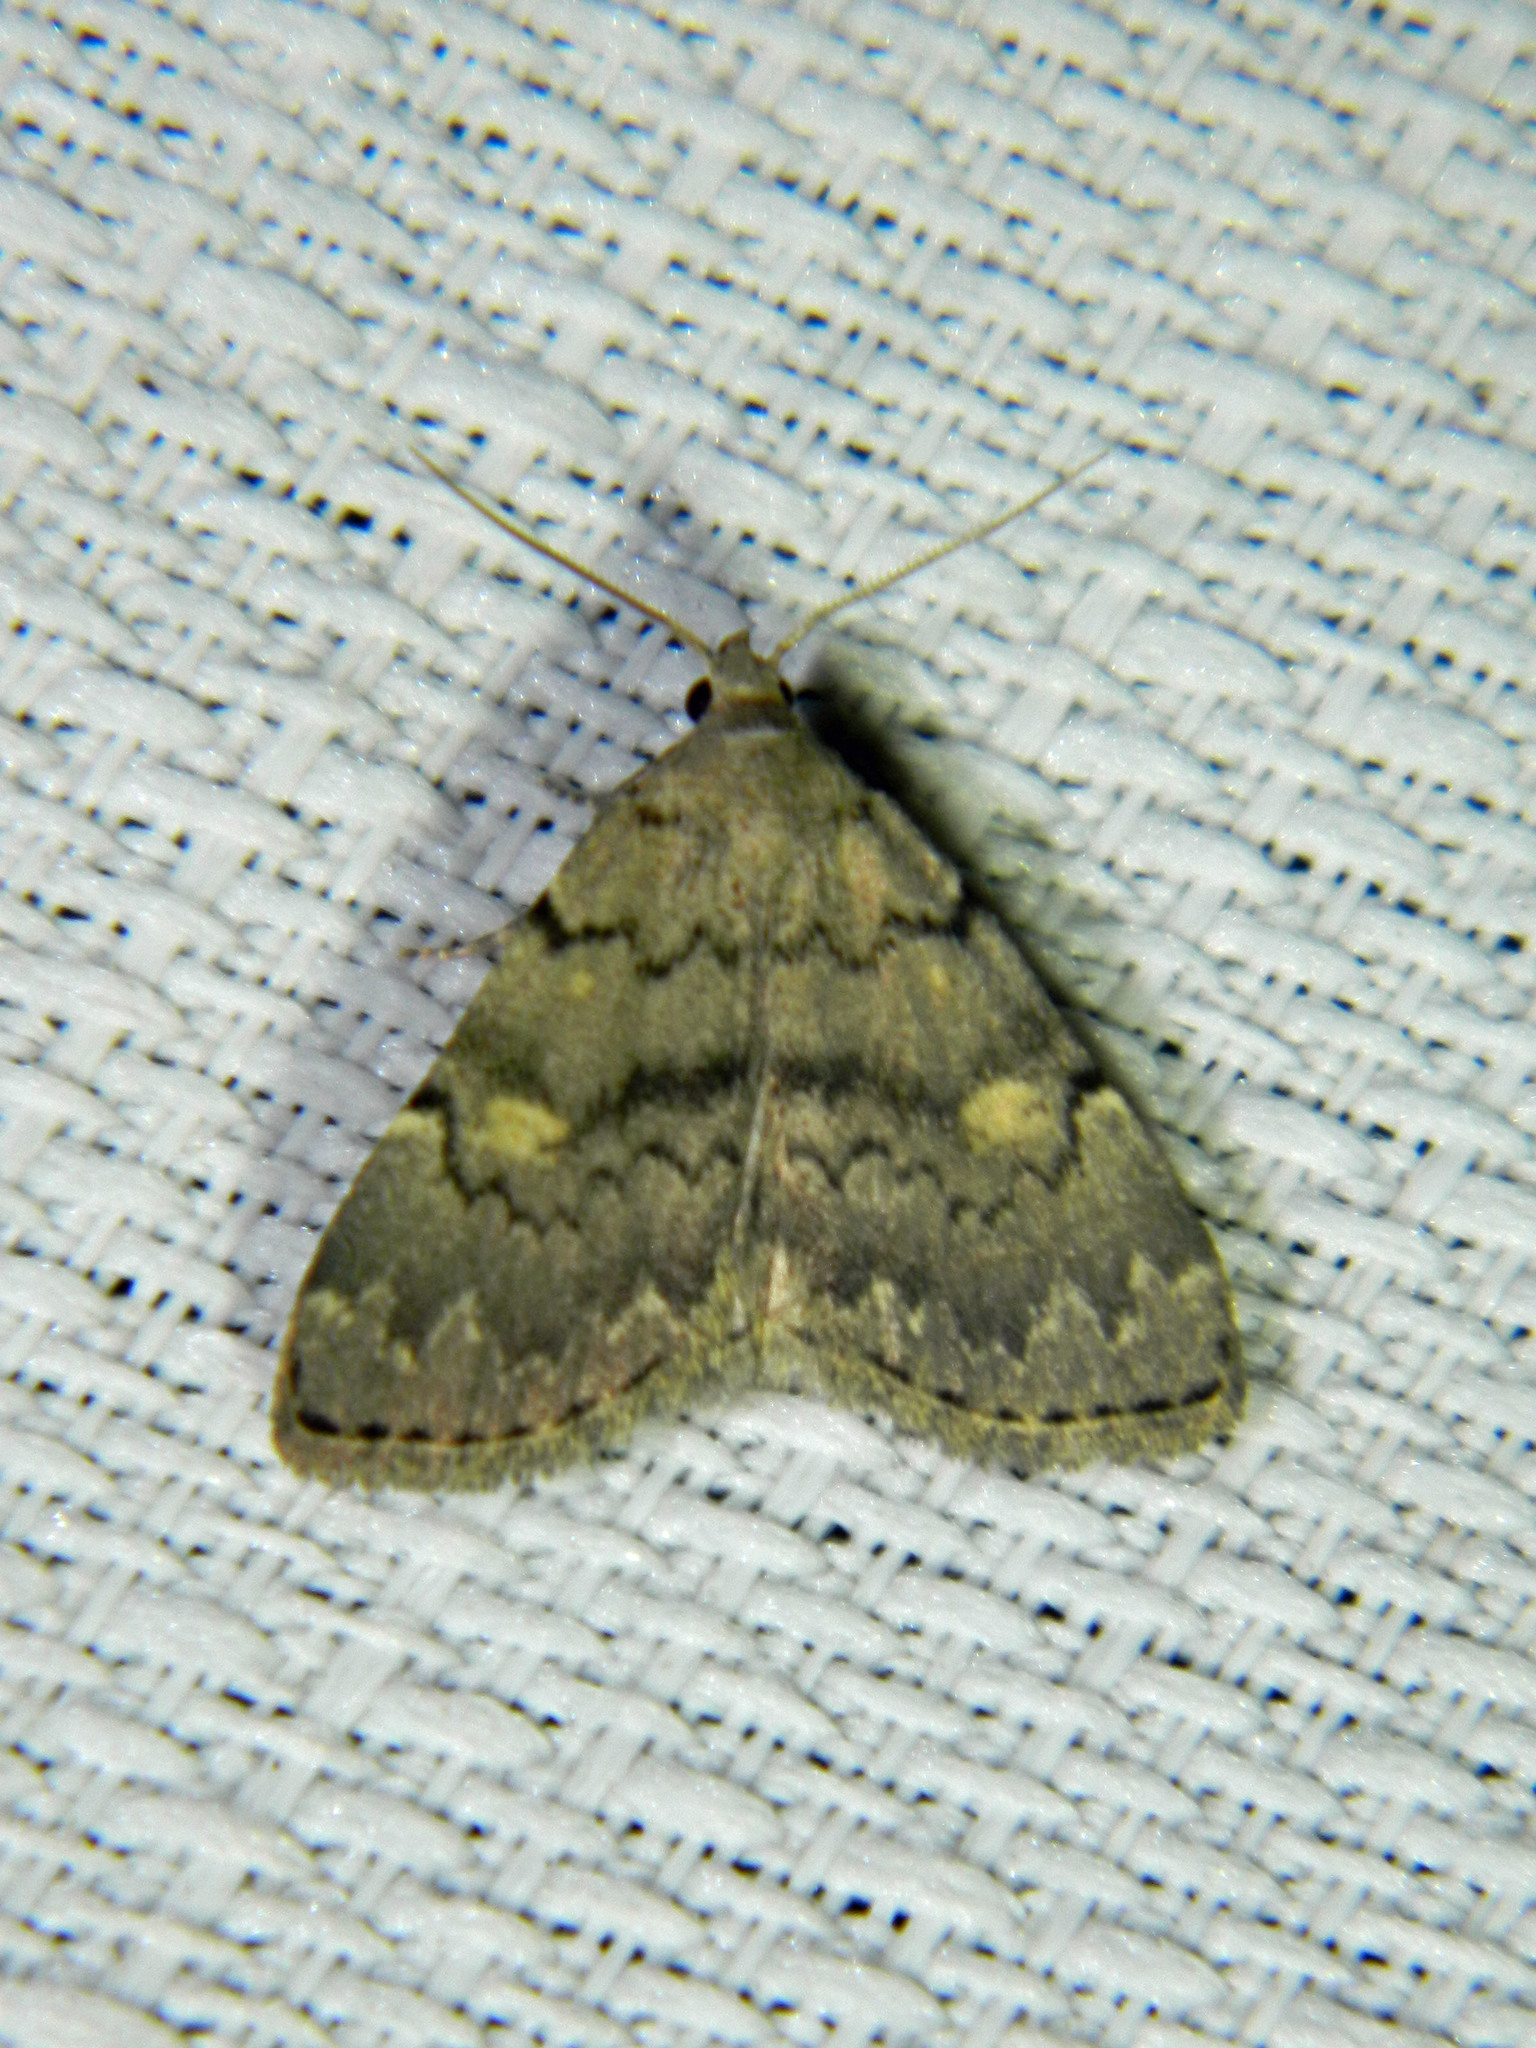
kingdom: Animalia
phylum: Arthropoda
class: Insecta
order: Lepidoptera
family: Erebidae
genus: Idia
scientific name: Idia aemula
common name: Common idia moth
